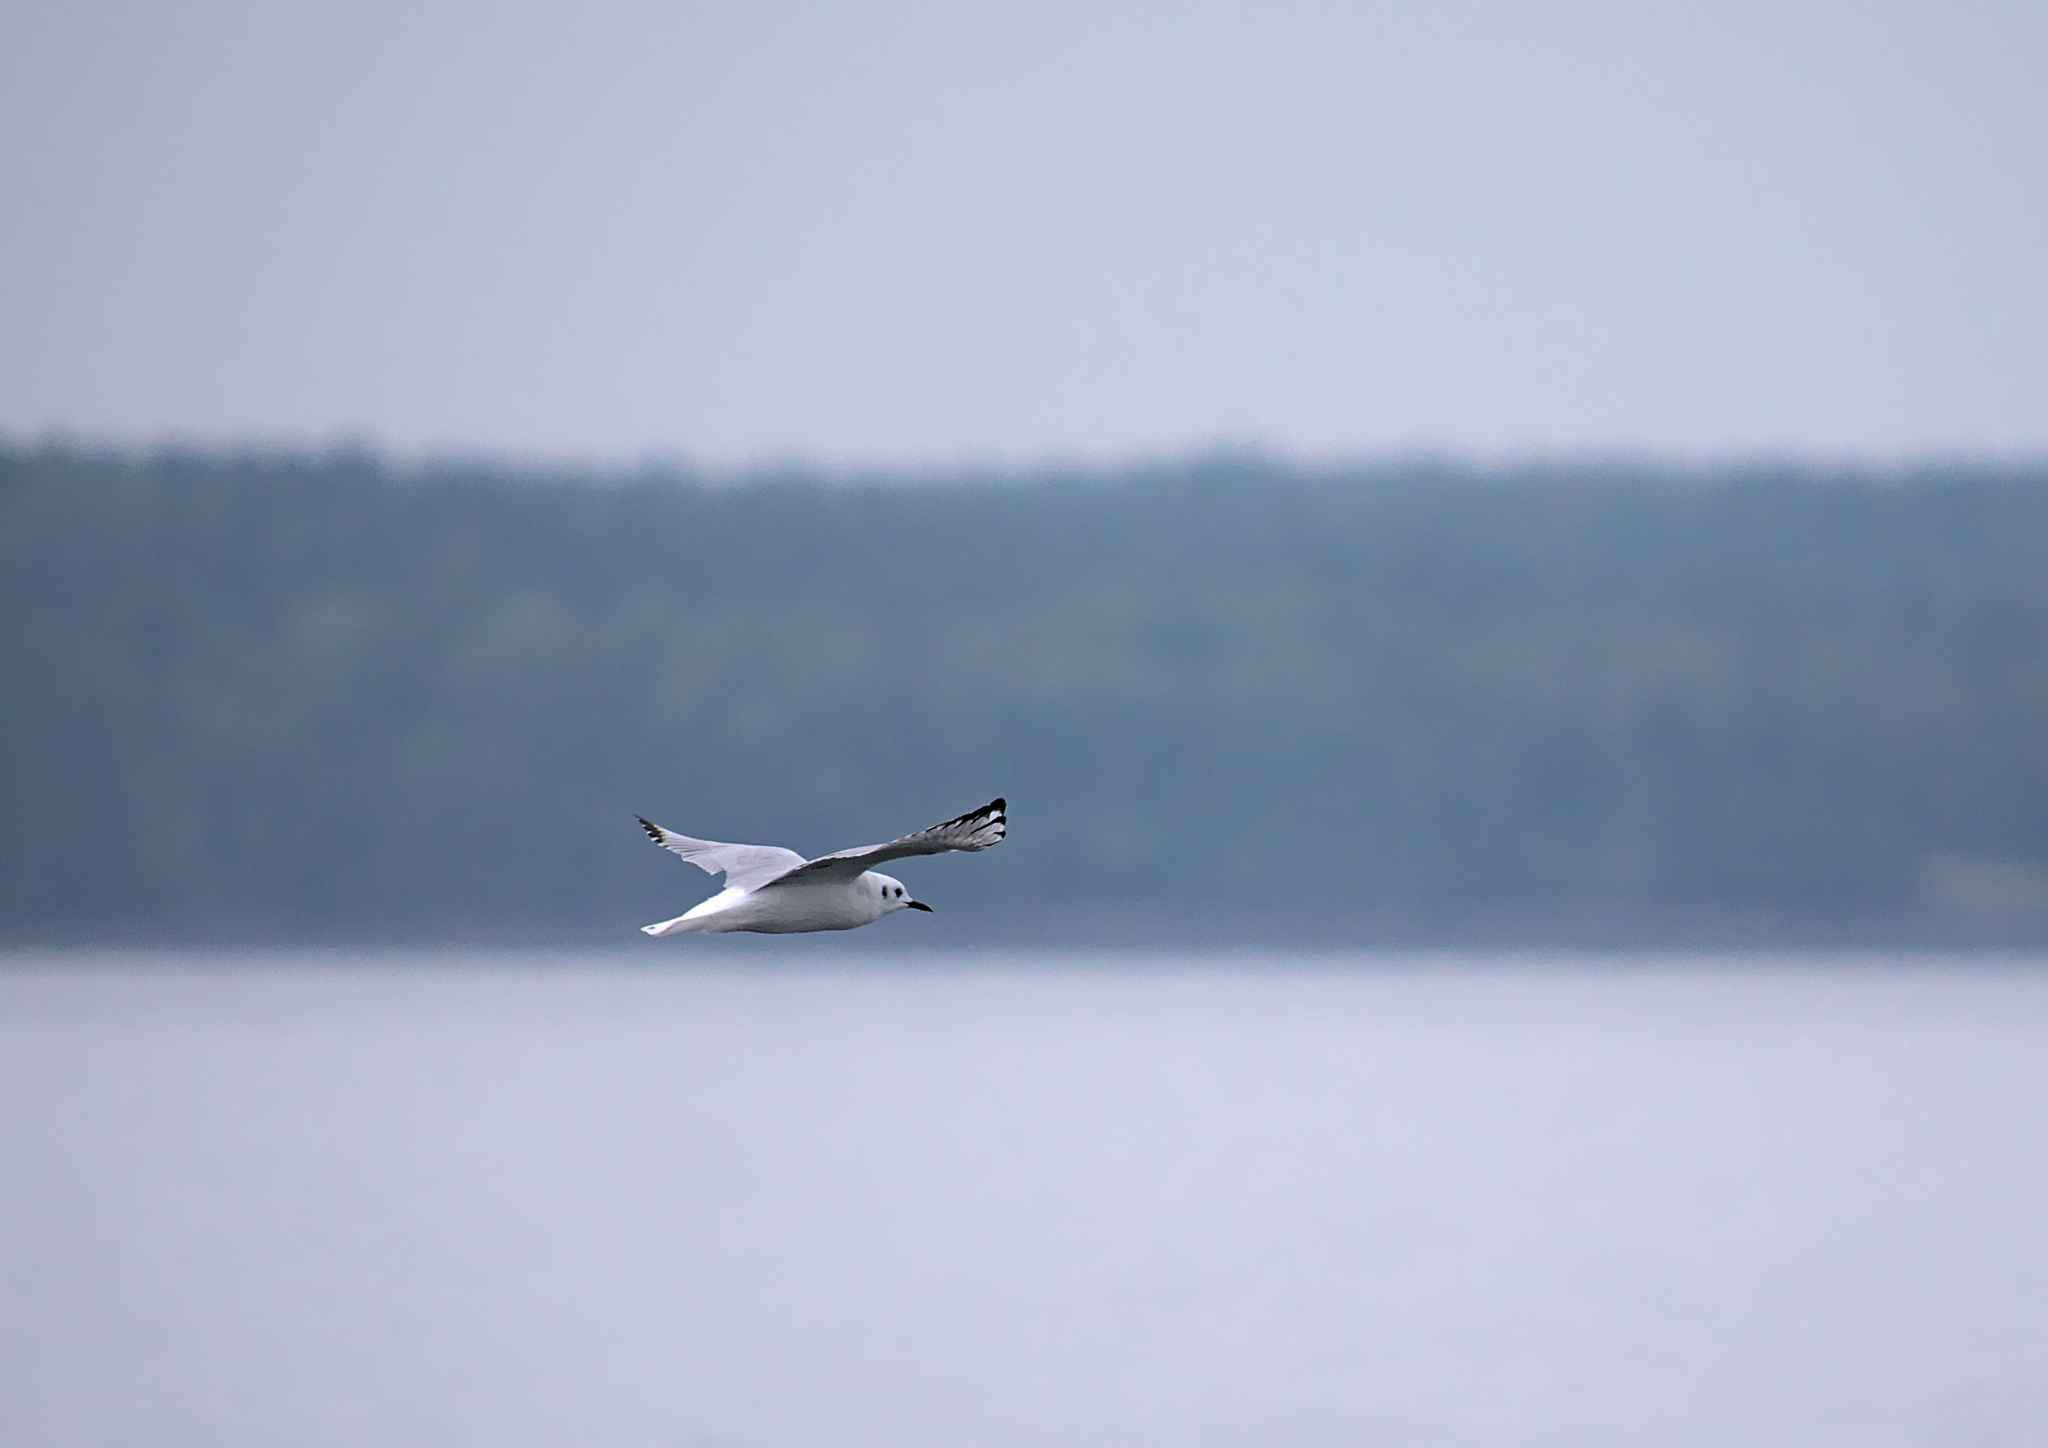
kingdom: Animalia
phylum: Chordata
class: Aves
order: Charadriiformes
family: Laridae
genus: Chroicocephalus
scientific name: Chroicocephalus philadelphia
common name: Bonaparte's gull
